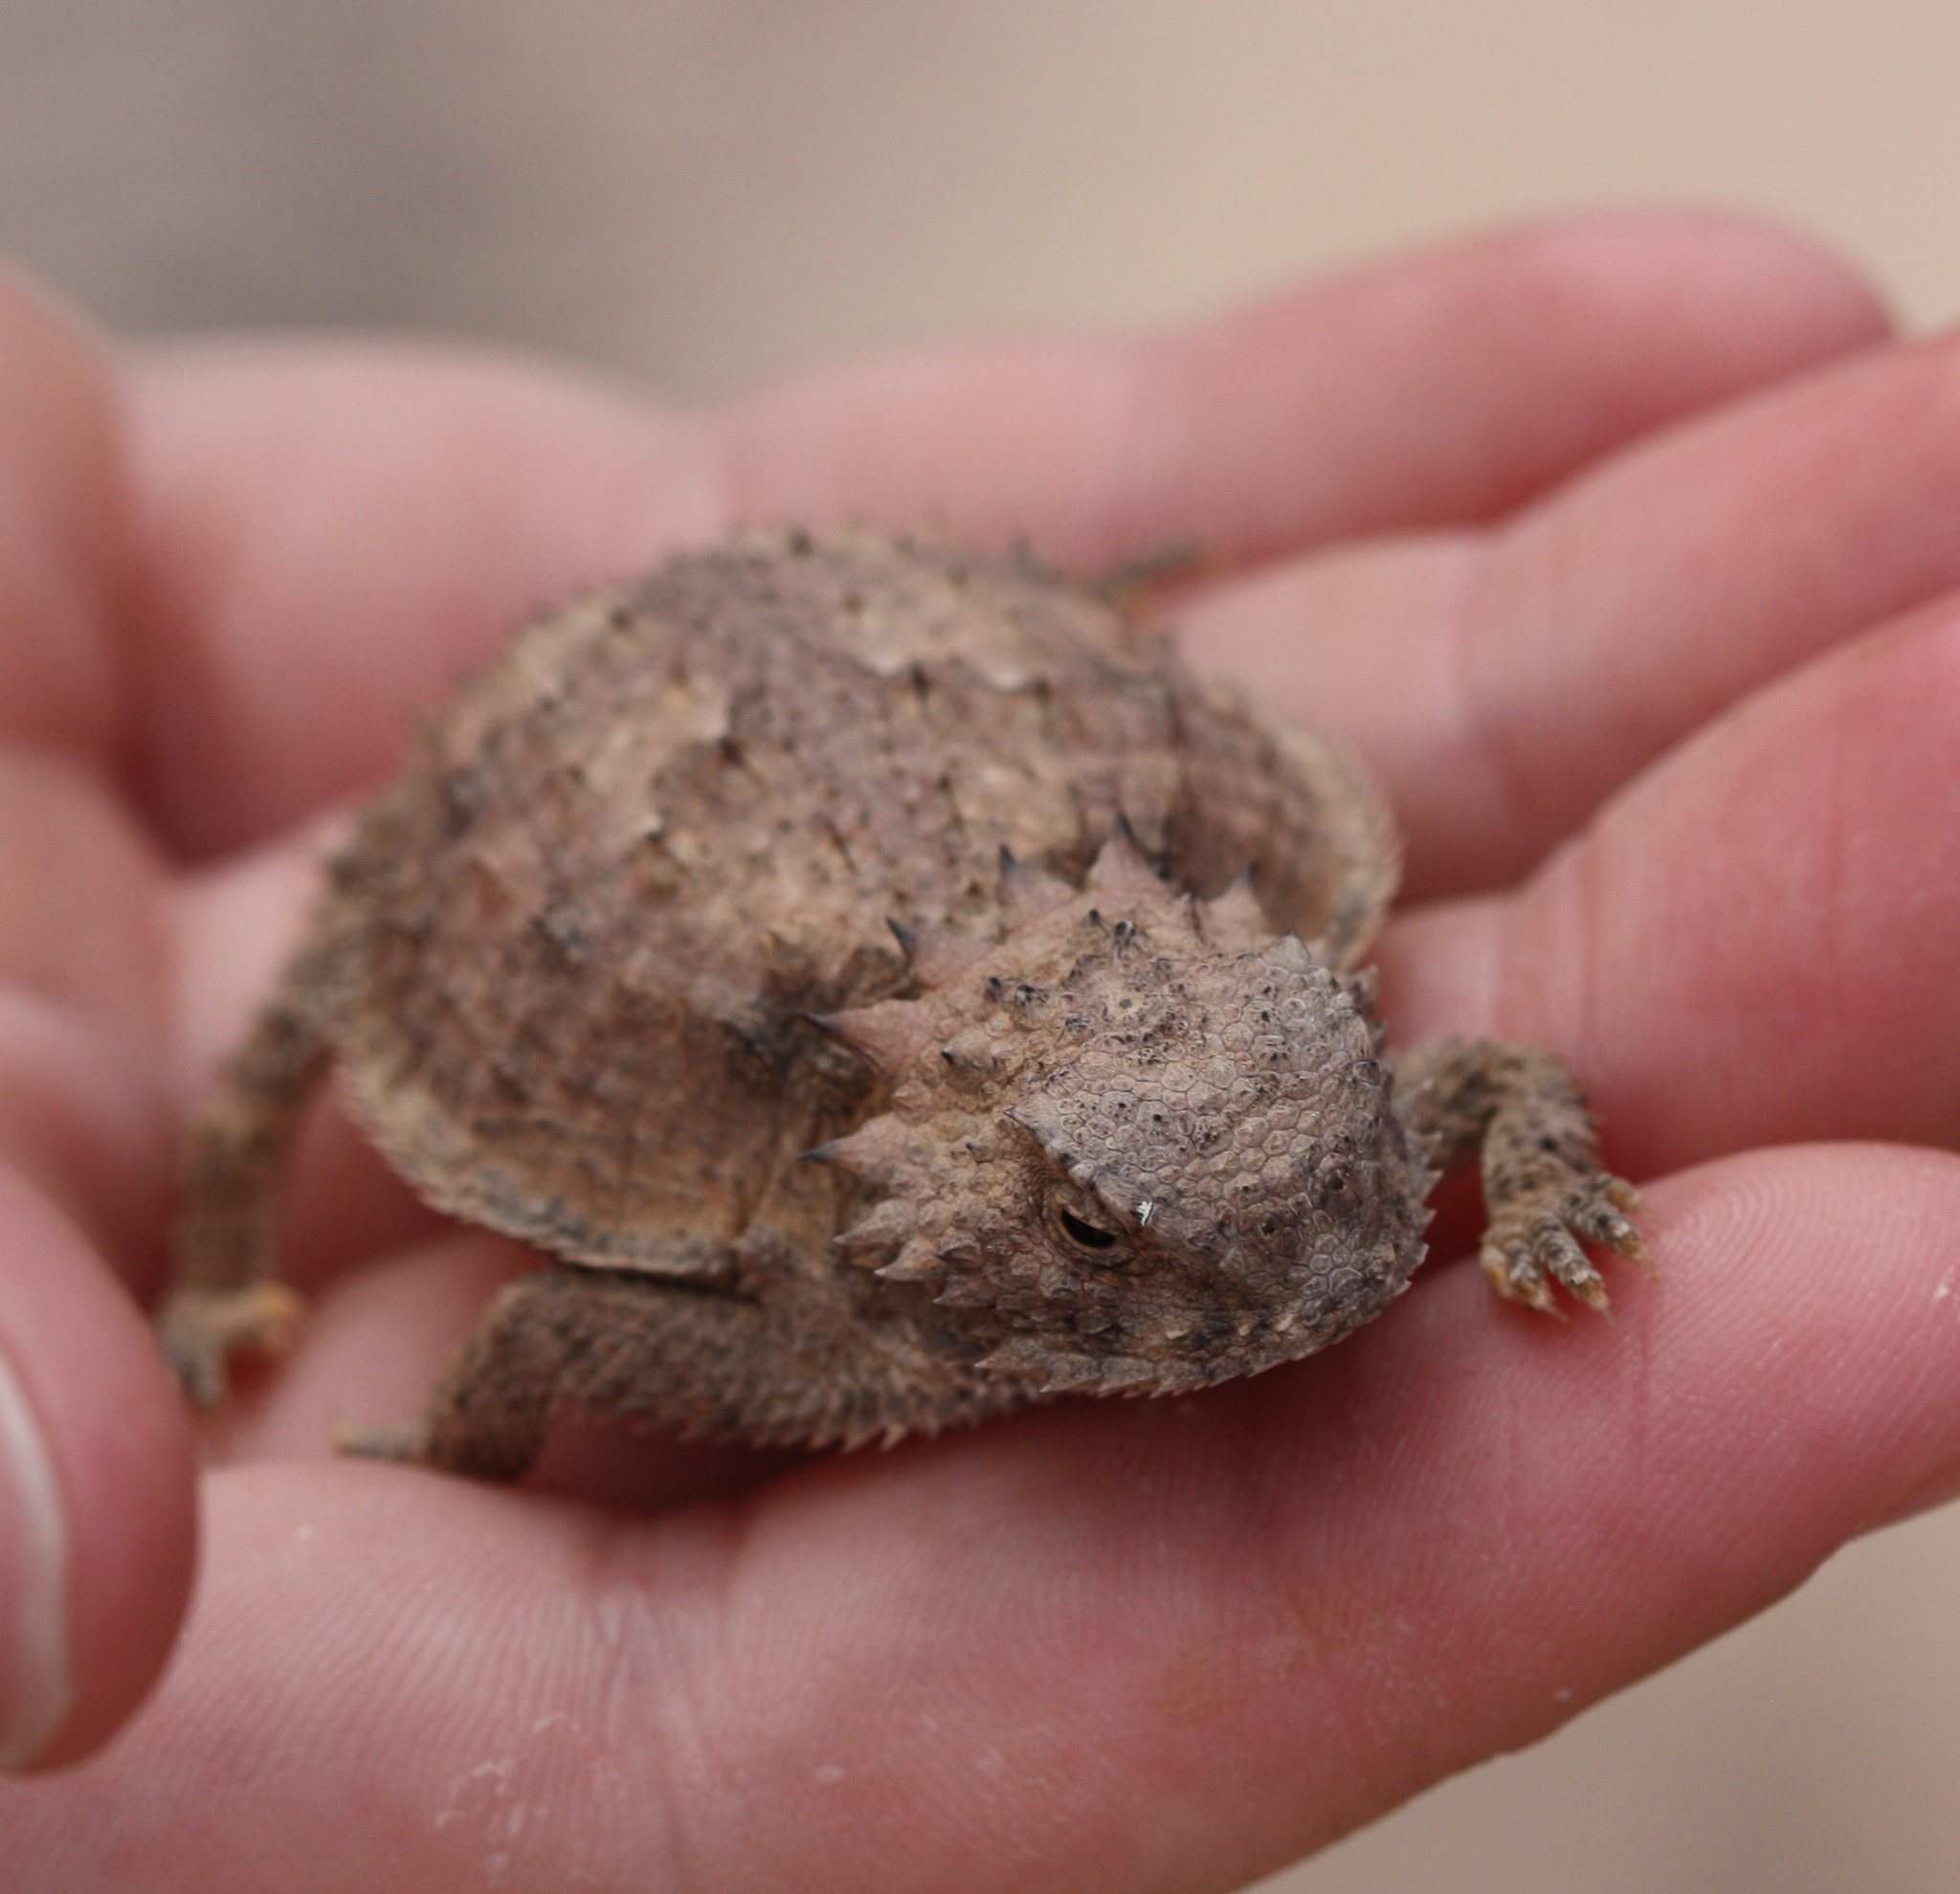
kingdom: Animalia
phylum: Chordata
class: Squamata
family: Phrynosomatidae
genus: Phrynosoma
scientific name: Phrynosoma solare
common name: Regal horned lizard
